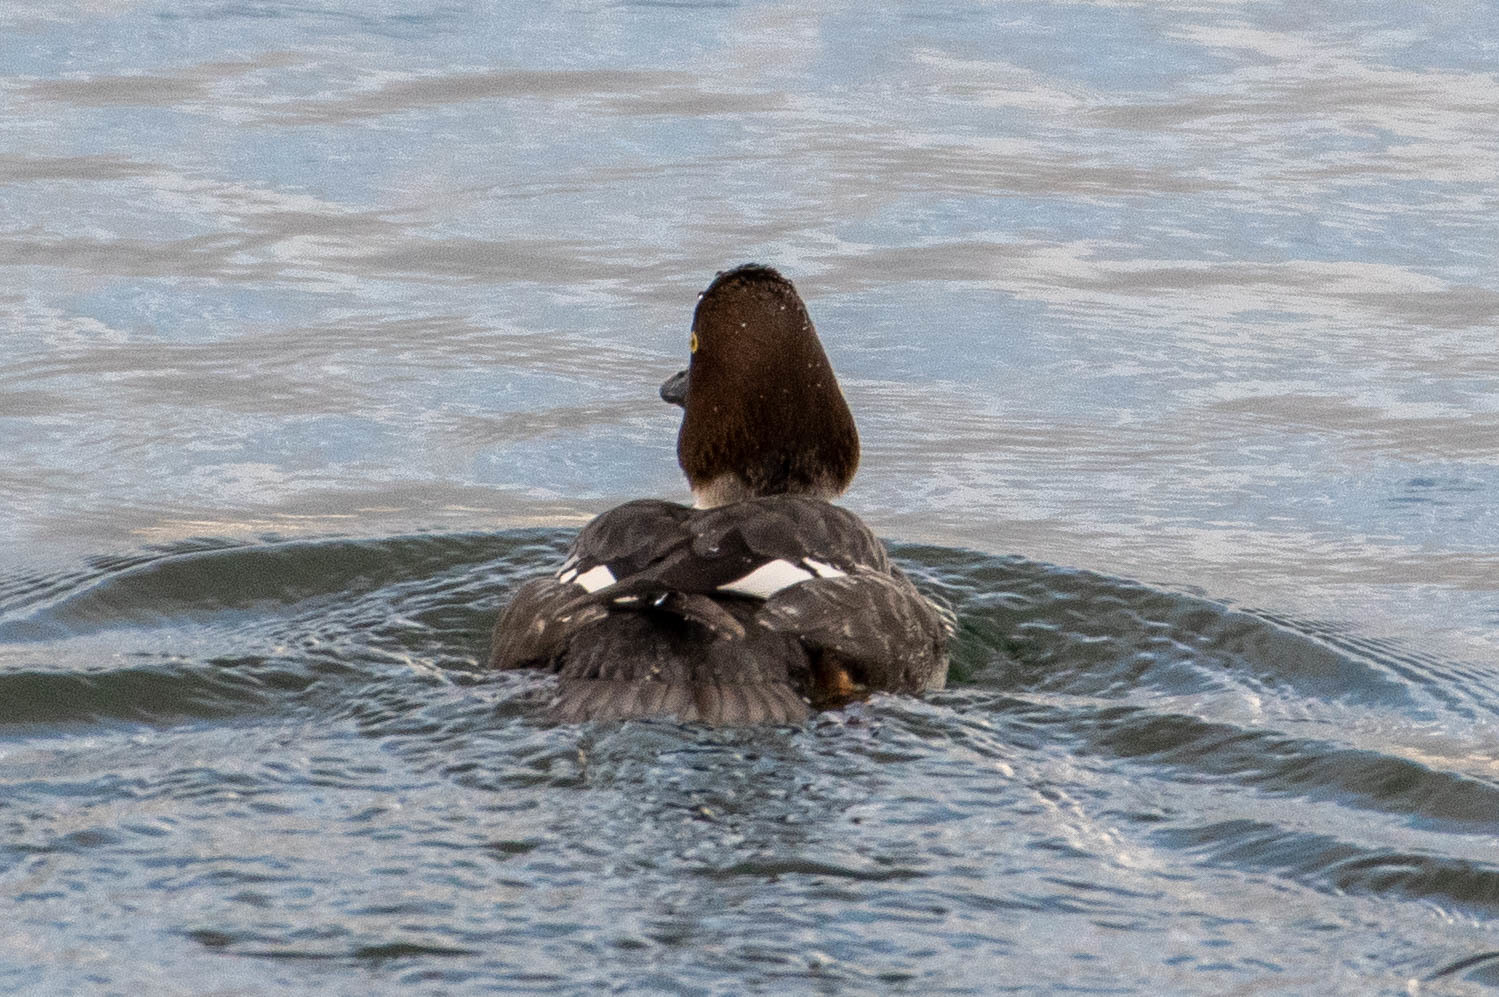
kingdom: Animalia
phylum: Chordata
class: Aves
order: Anseriformes
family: Anatidae
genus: Bucephala
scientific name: Bucephala clangula
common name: Common goldeneye
